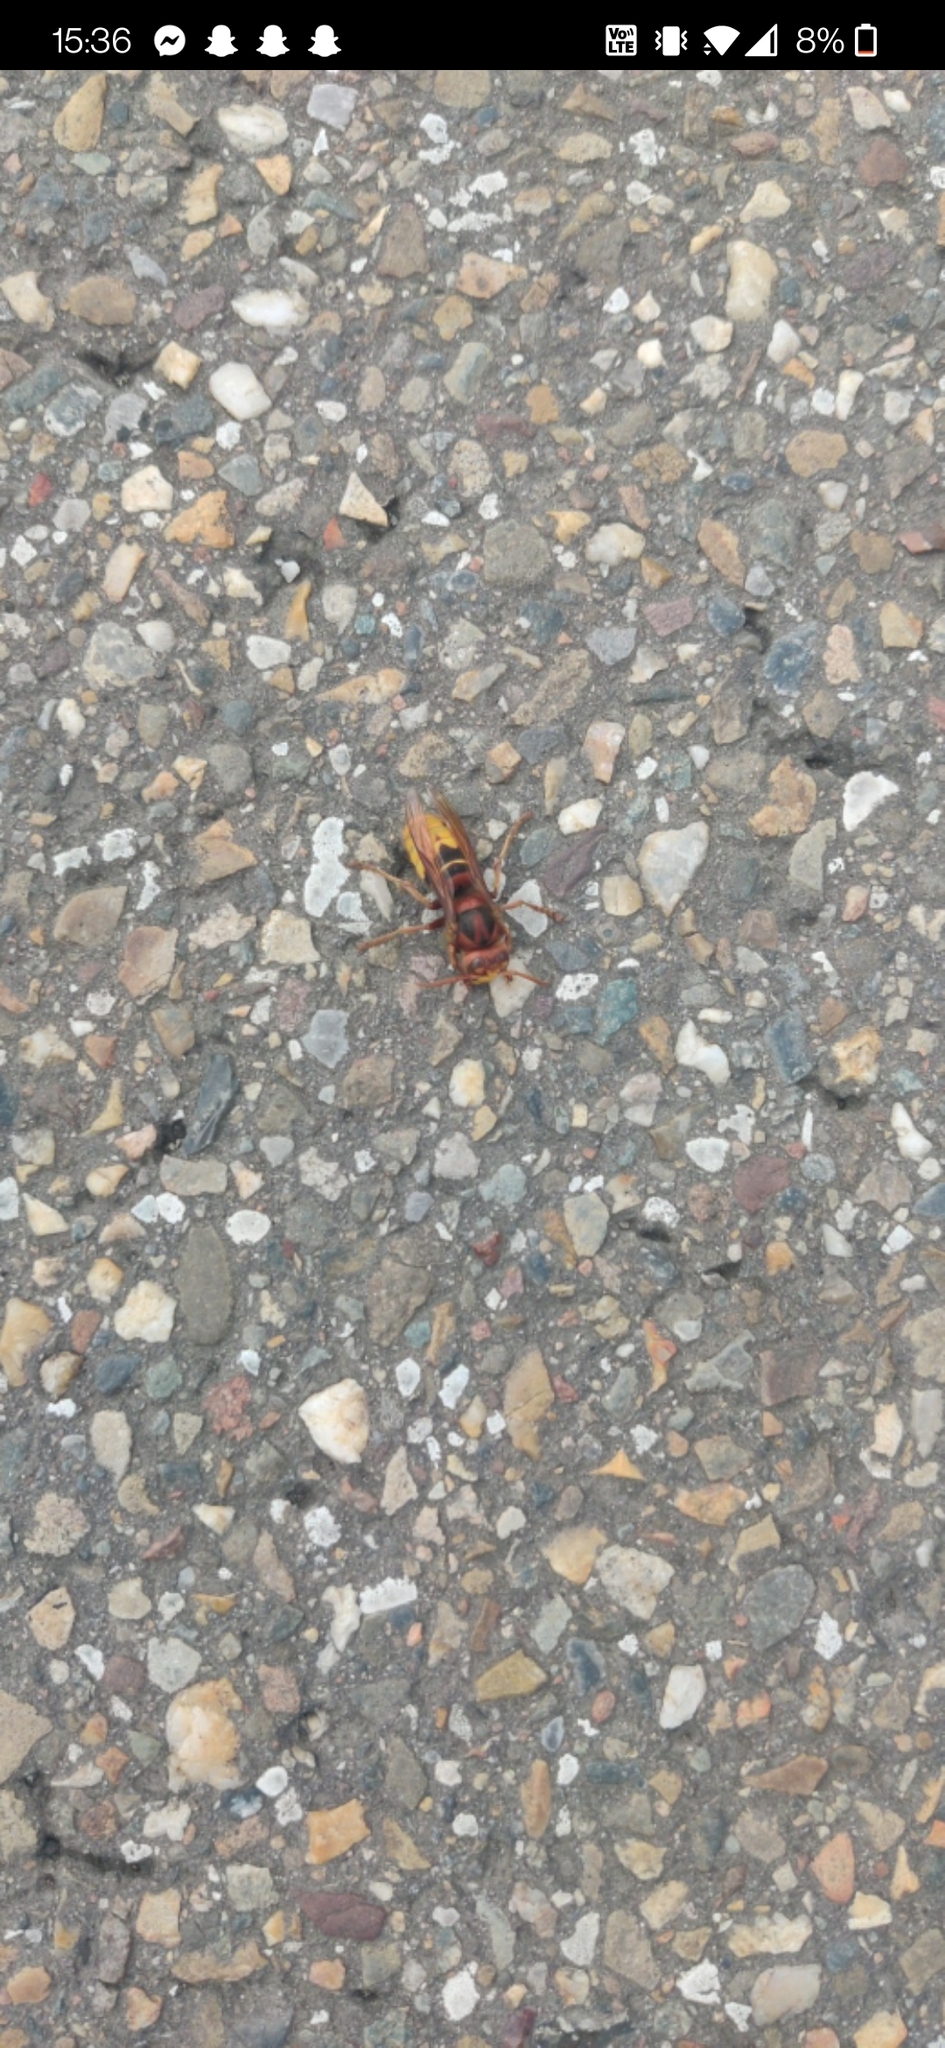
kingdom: Animalia
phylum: Arthropoda
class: Insecta
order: Hymenoptera
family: Vespidae
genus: Vespa
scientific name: Vespa crabro
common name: Hornet
